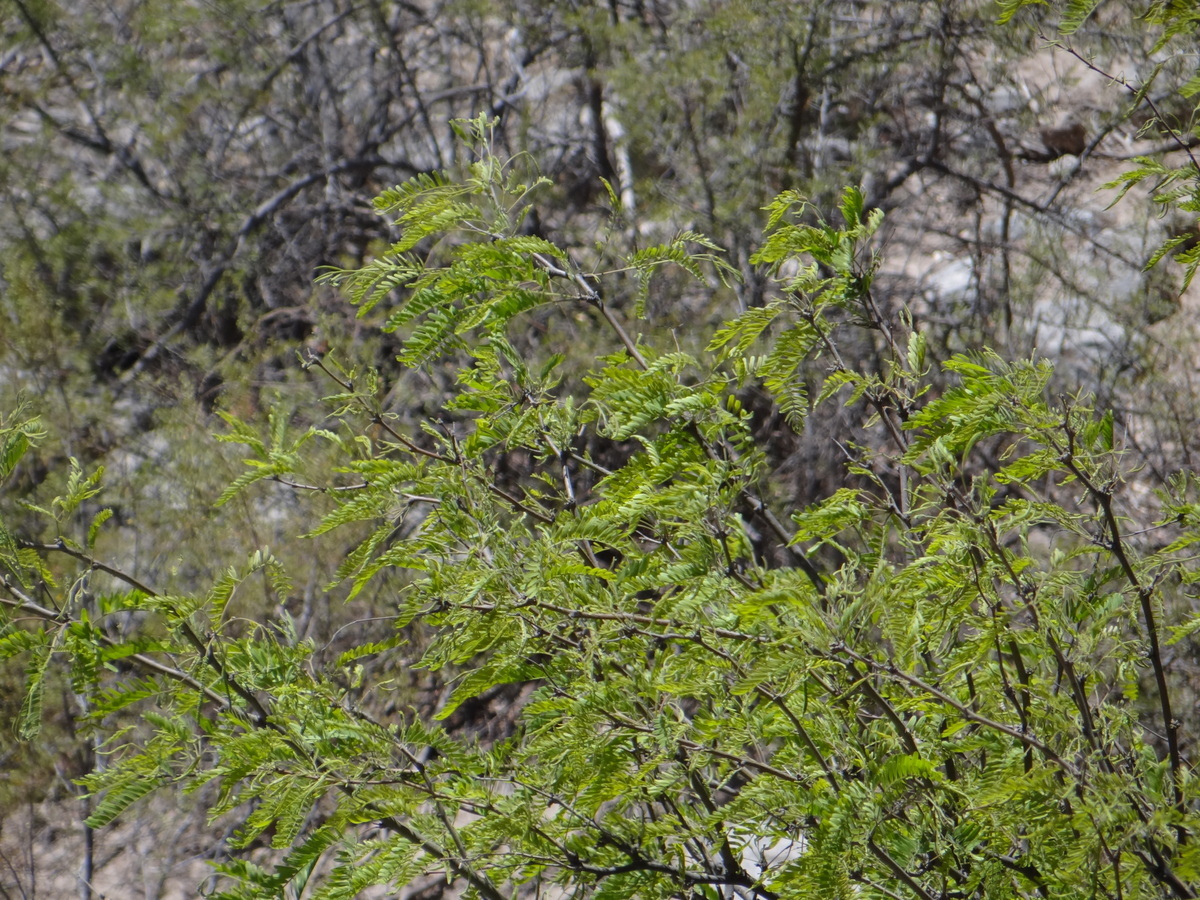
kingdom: Plantae
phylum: Tracheophyta
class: Magnoliopsida
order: Fabales
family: Fabaceae
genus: Prosopis
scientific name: Prosopis chilensis
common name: Chilean algarrobo
